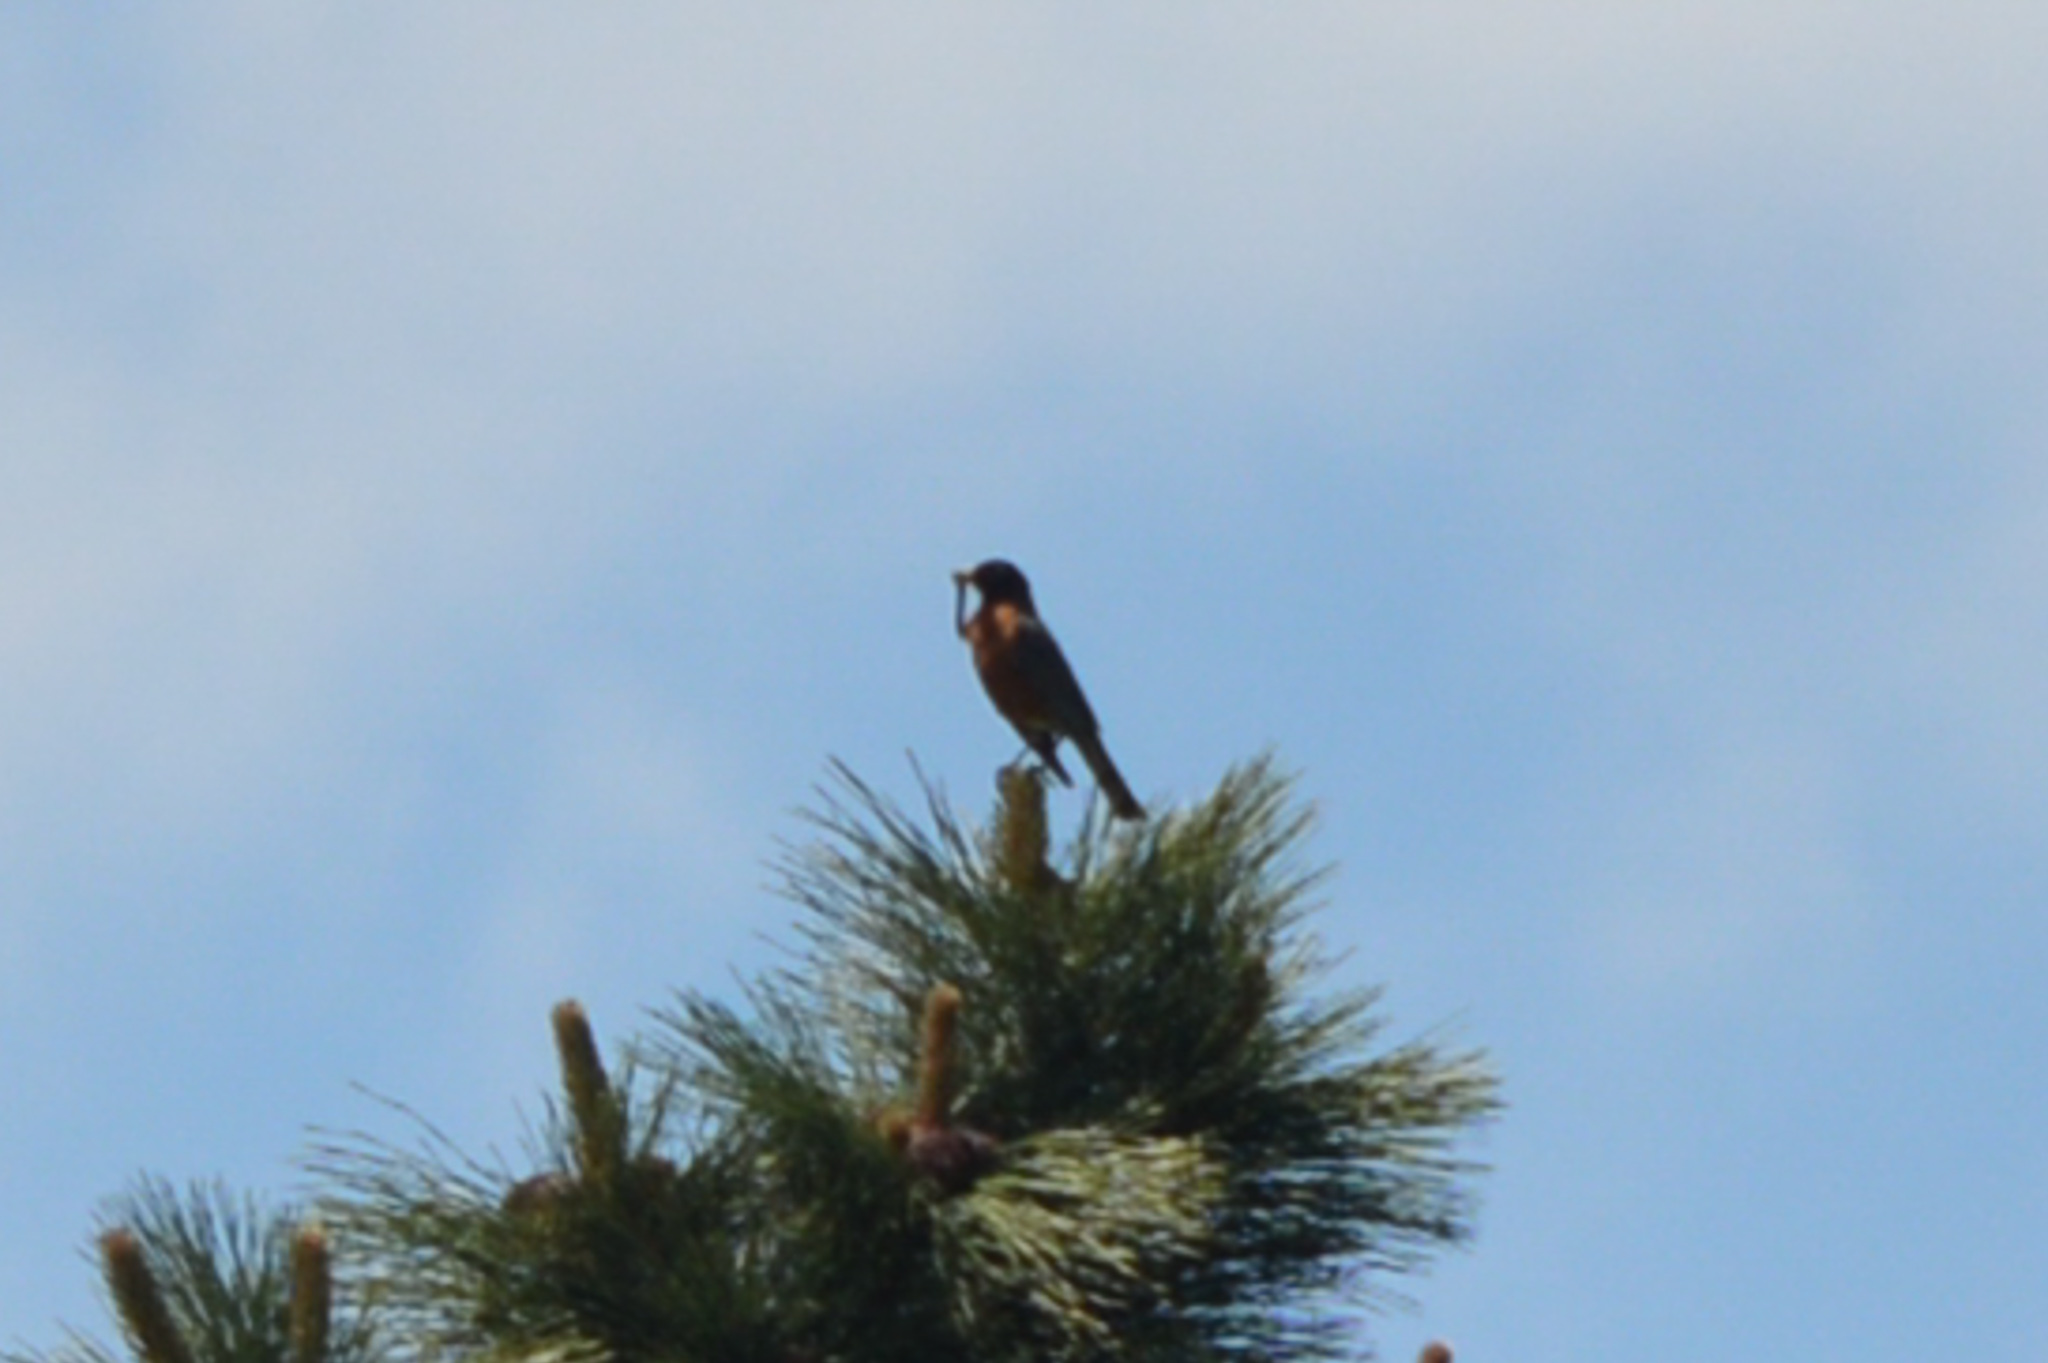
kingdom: Animalia
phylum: Chordata
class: Aves
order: Passeriformes
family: Turdidae
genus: Turdus
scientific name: Turdus migratorius
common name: American robin
